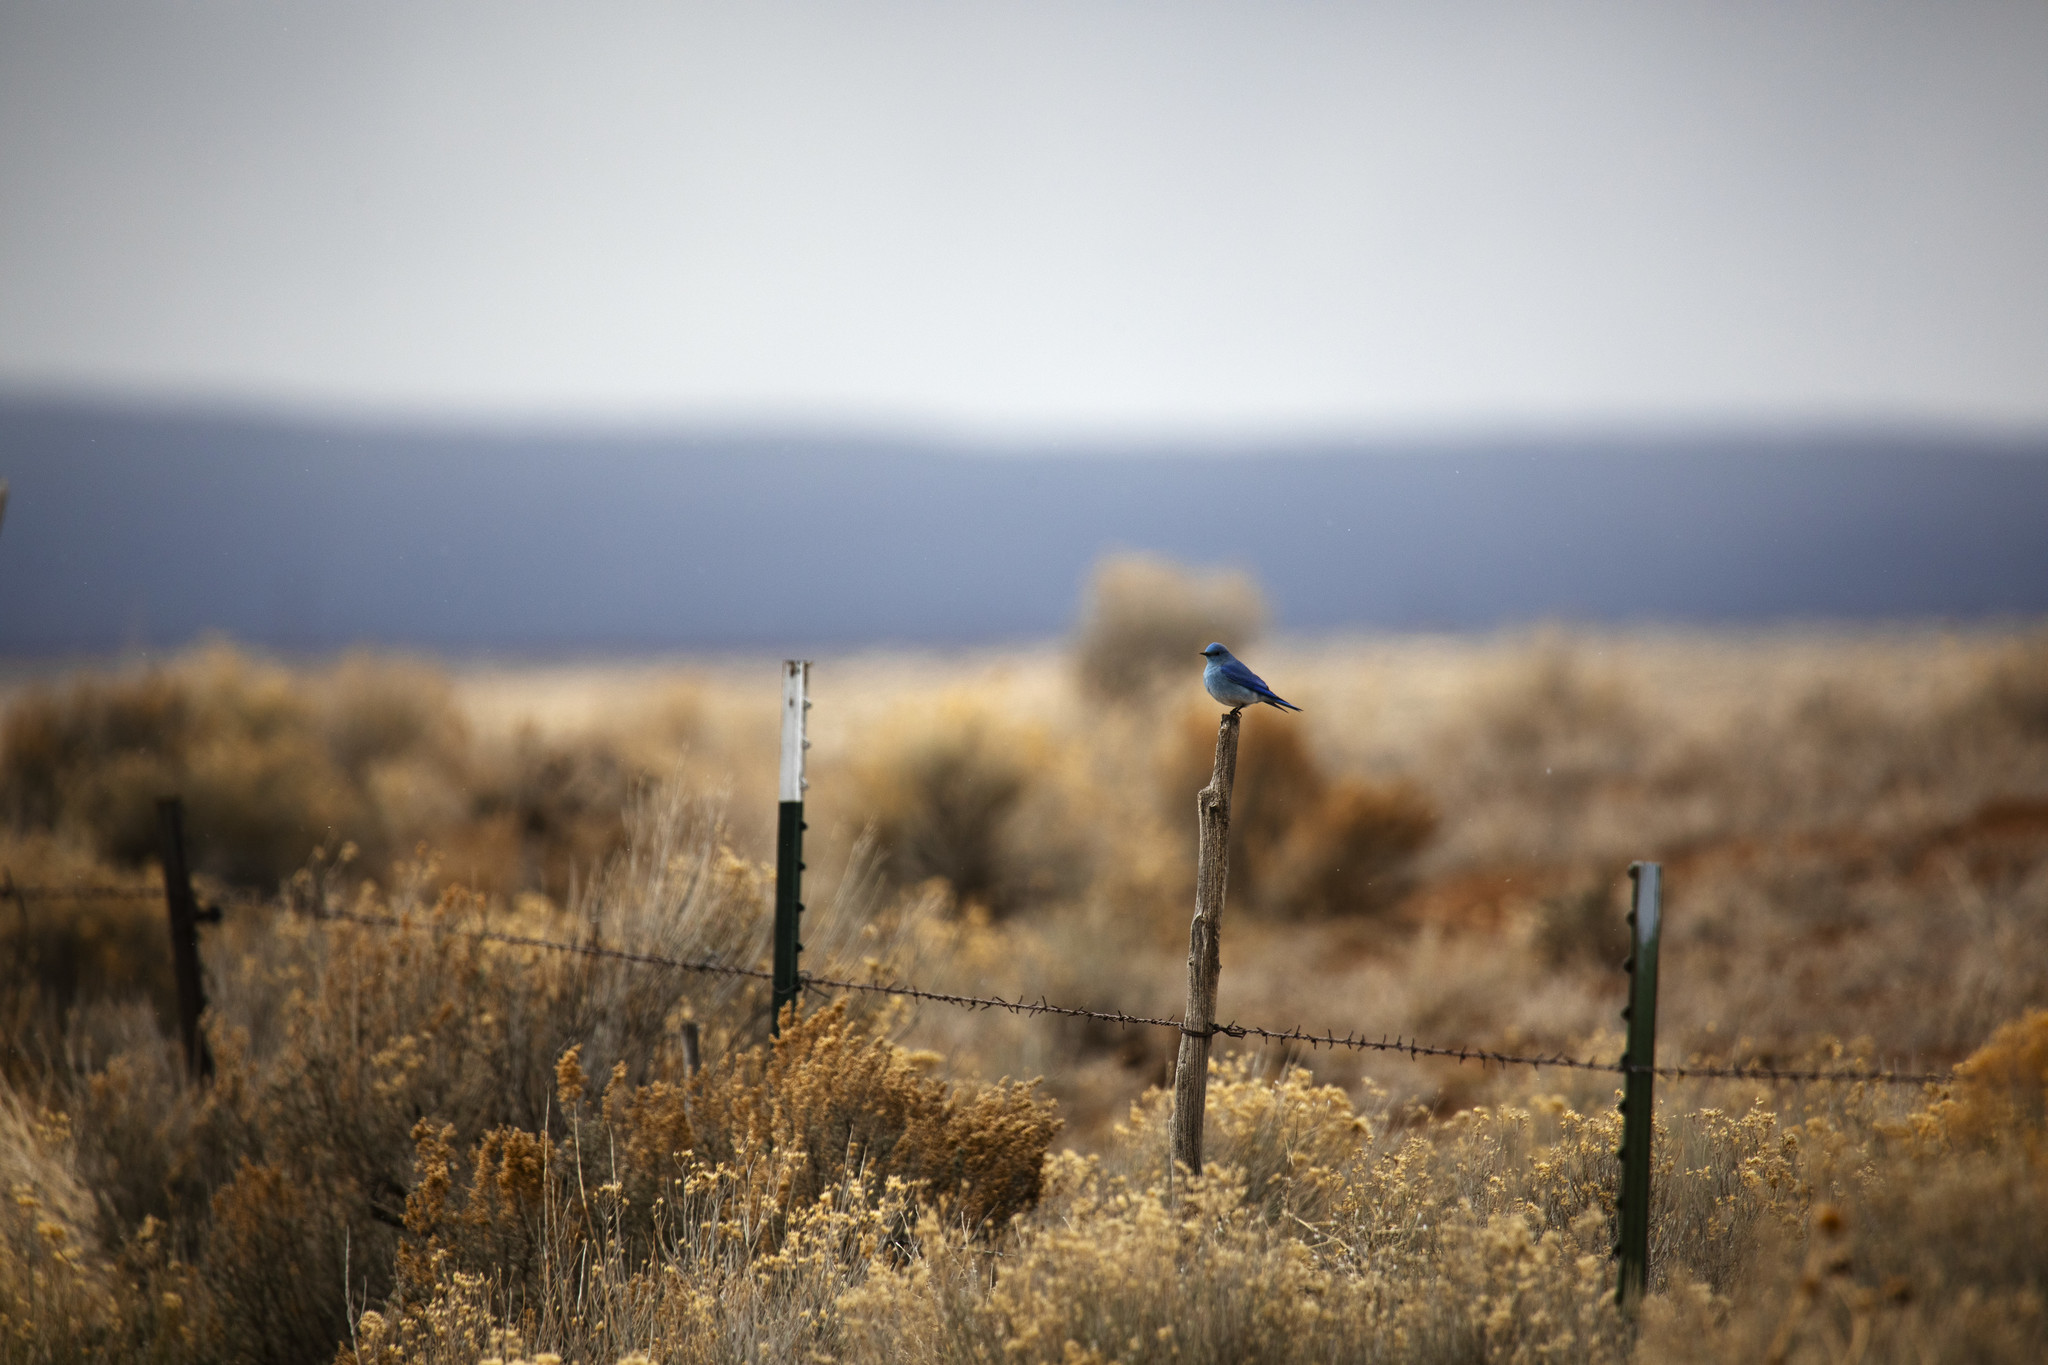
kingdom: Animalia
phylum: Chordata
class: Aves
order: Passeriformes
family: Turdidae
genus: Sialia
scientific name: Sialia currucoides
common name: Mountain bluebird
